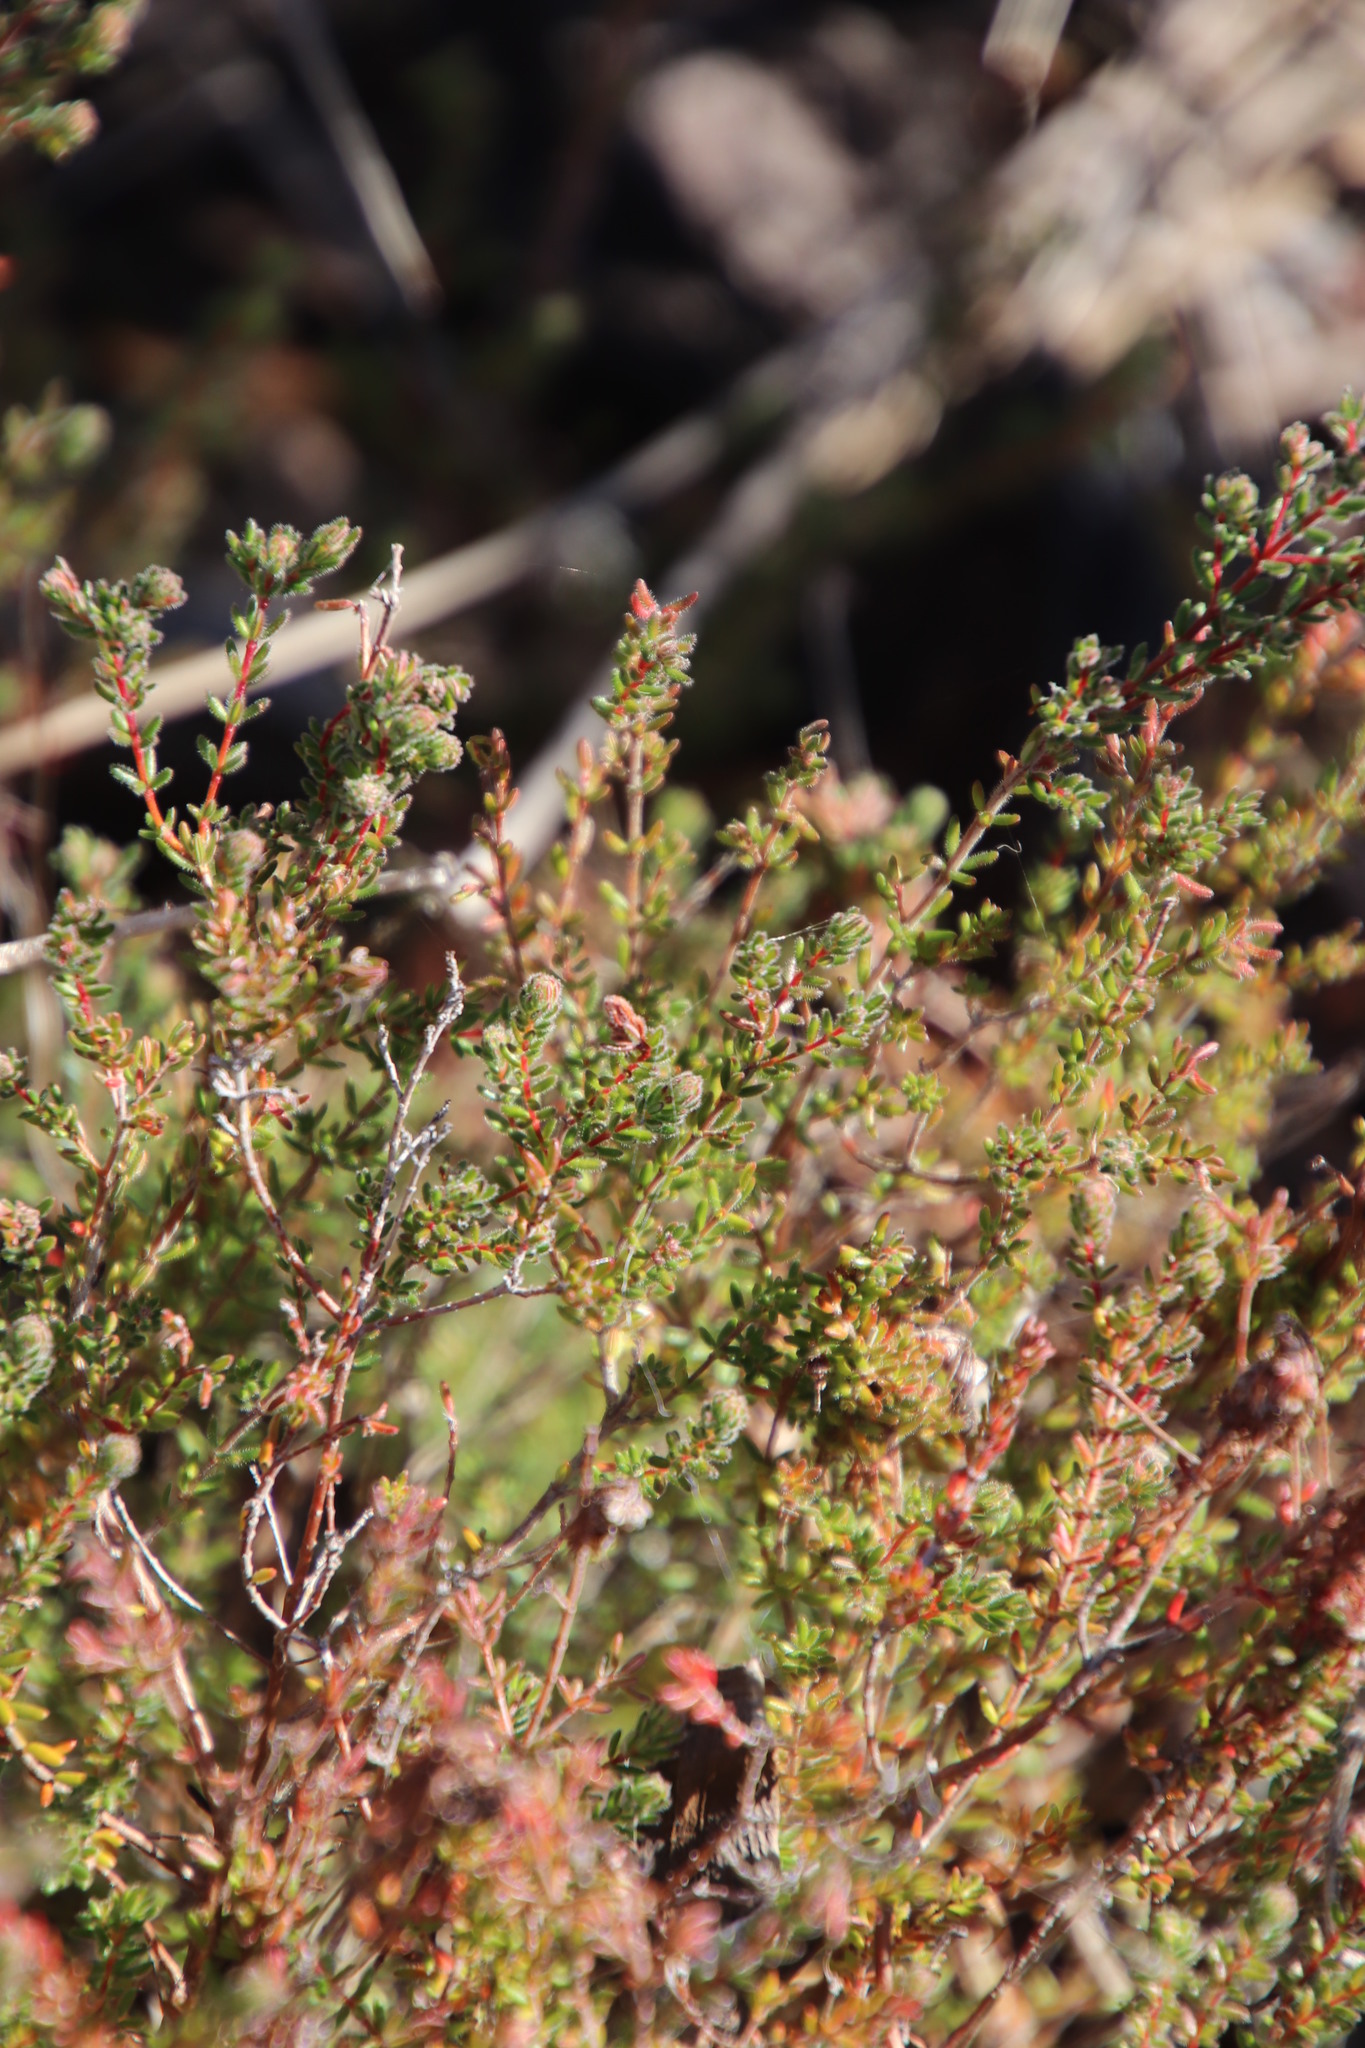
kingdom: Plantae
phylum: Tracheophyta
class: Magnoliopsida
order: Ericales
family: Ericaceae
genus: Erica
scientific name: Erica turgida
